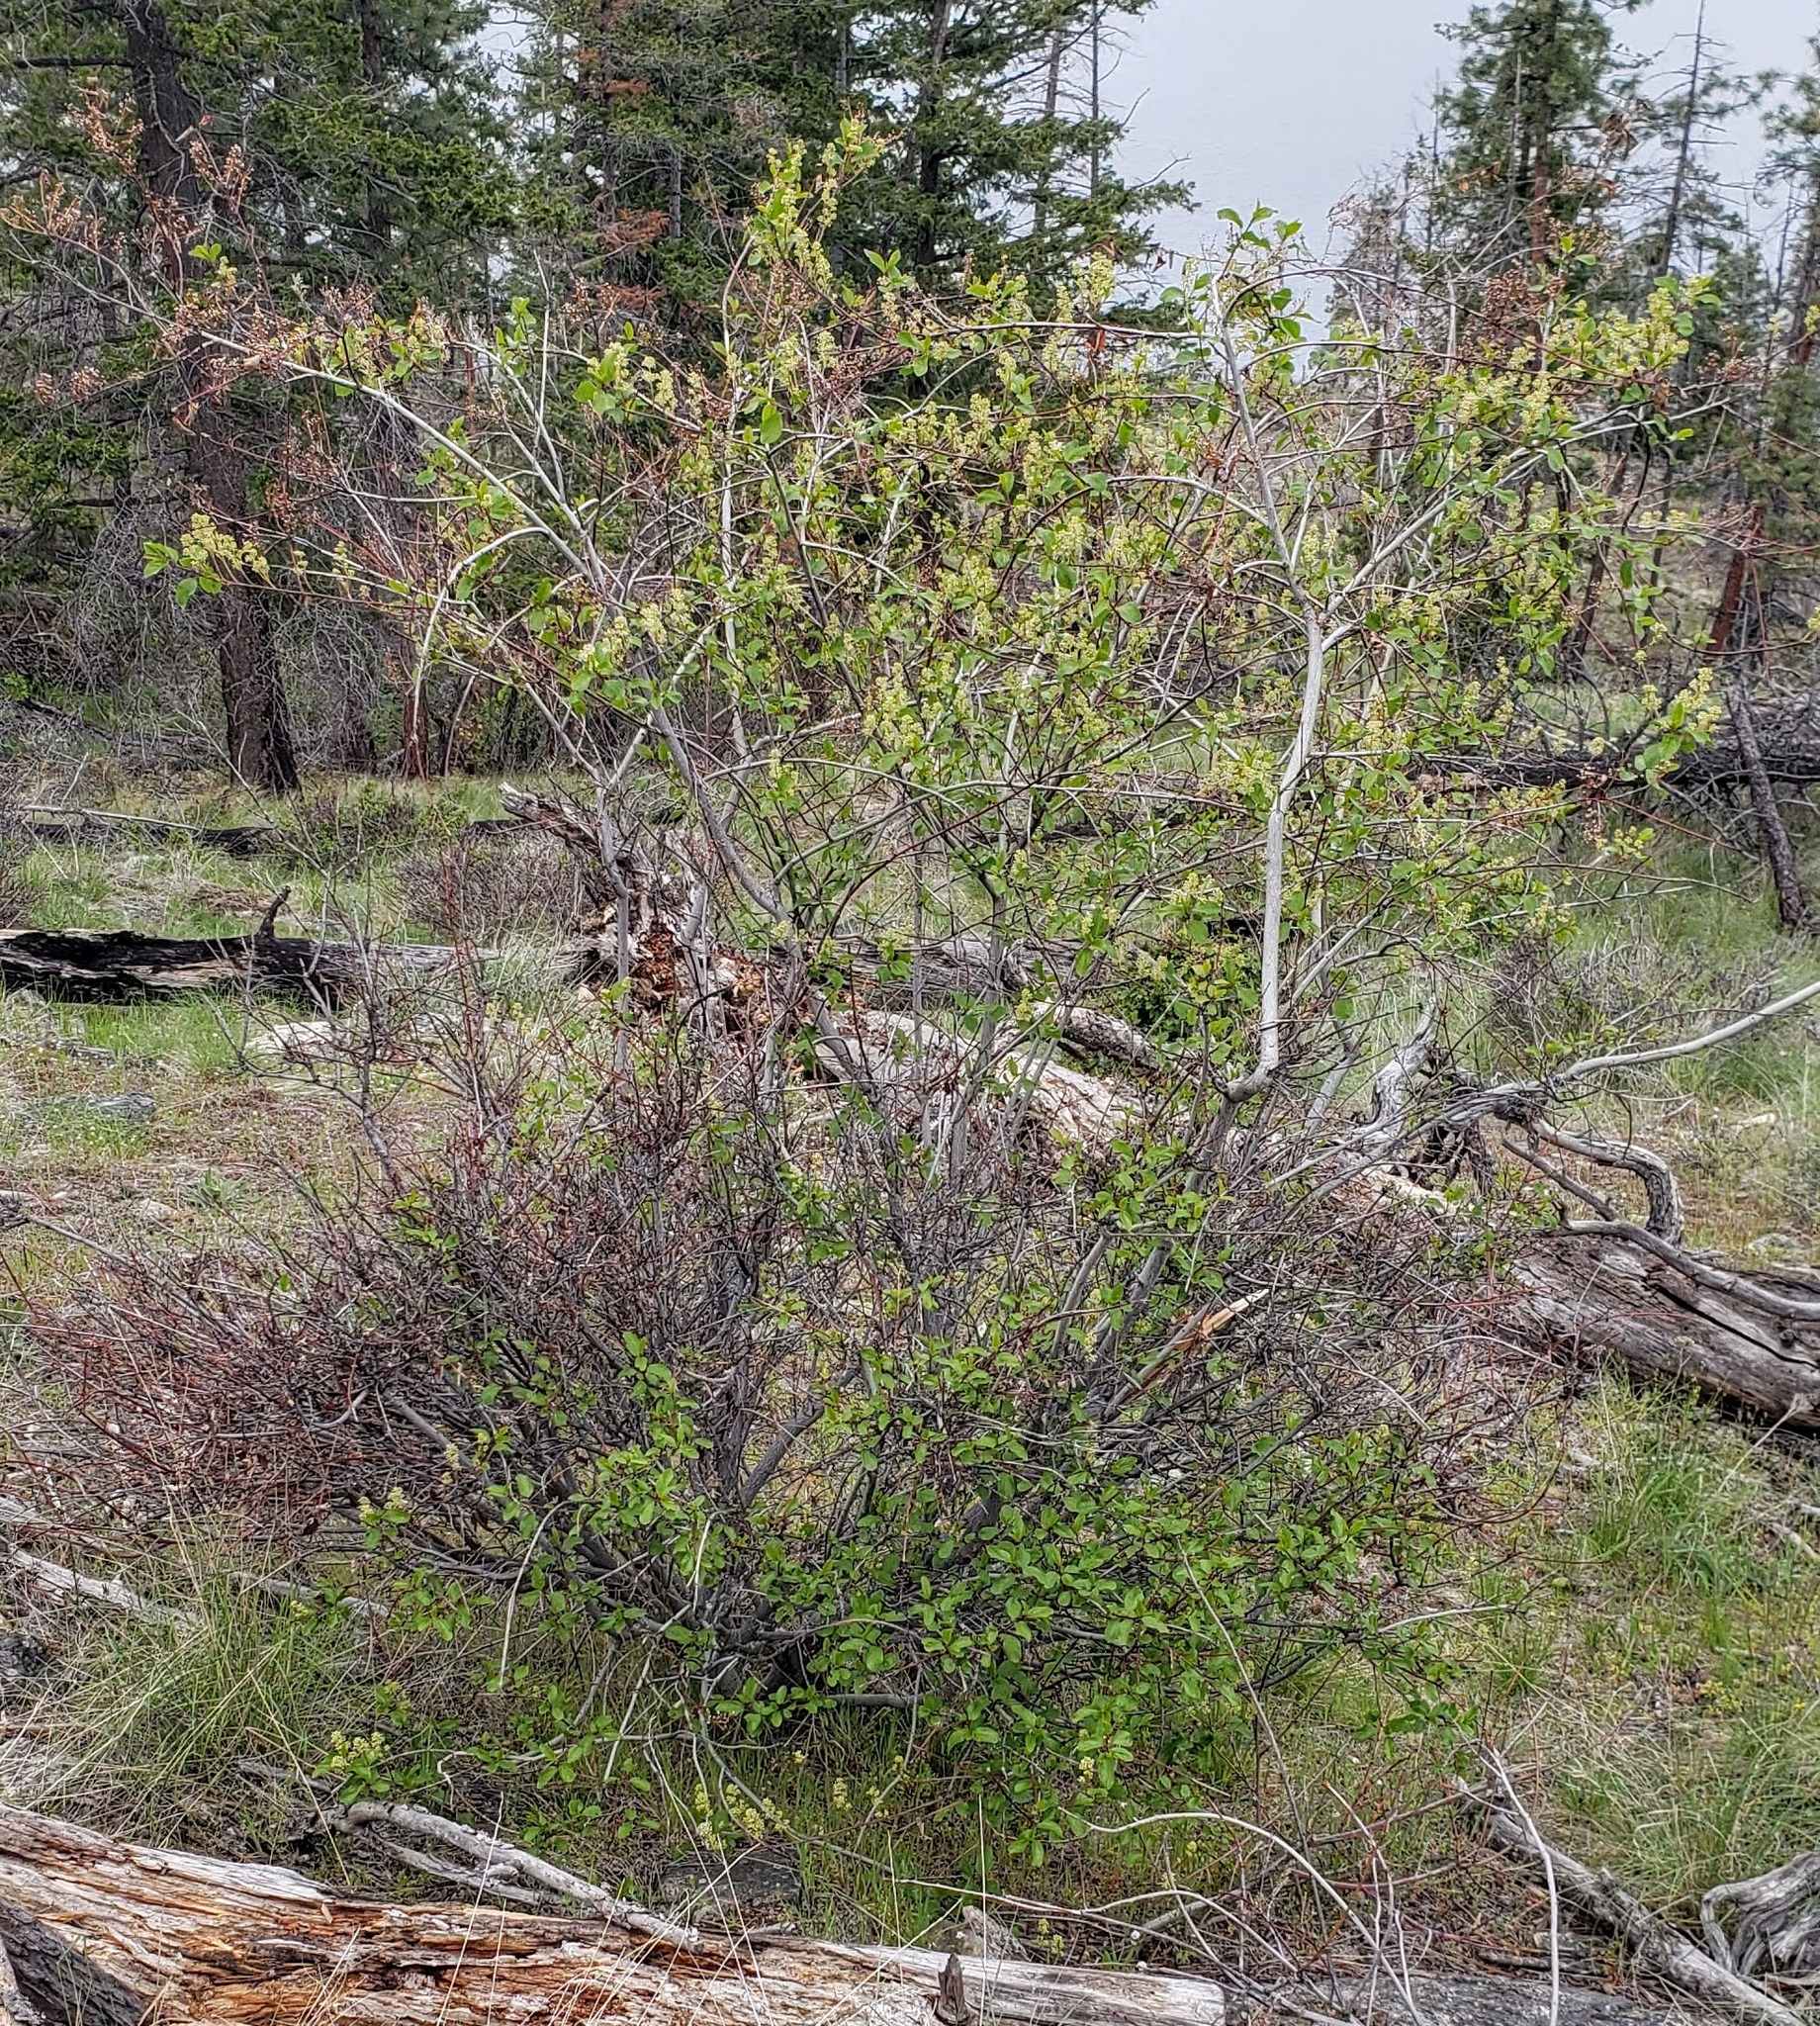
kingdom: Plantae
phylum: Tracheophyta
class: Magnoliopsida
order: Rosales
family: Rhamnaceae
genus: Ceanothus
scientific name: Ceanothus sanguineus
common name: Teatree
